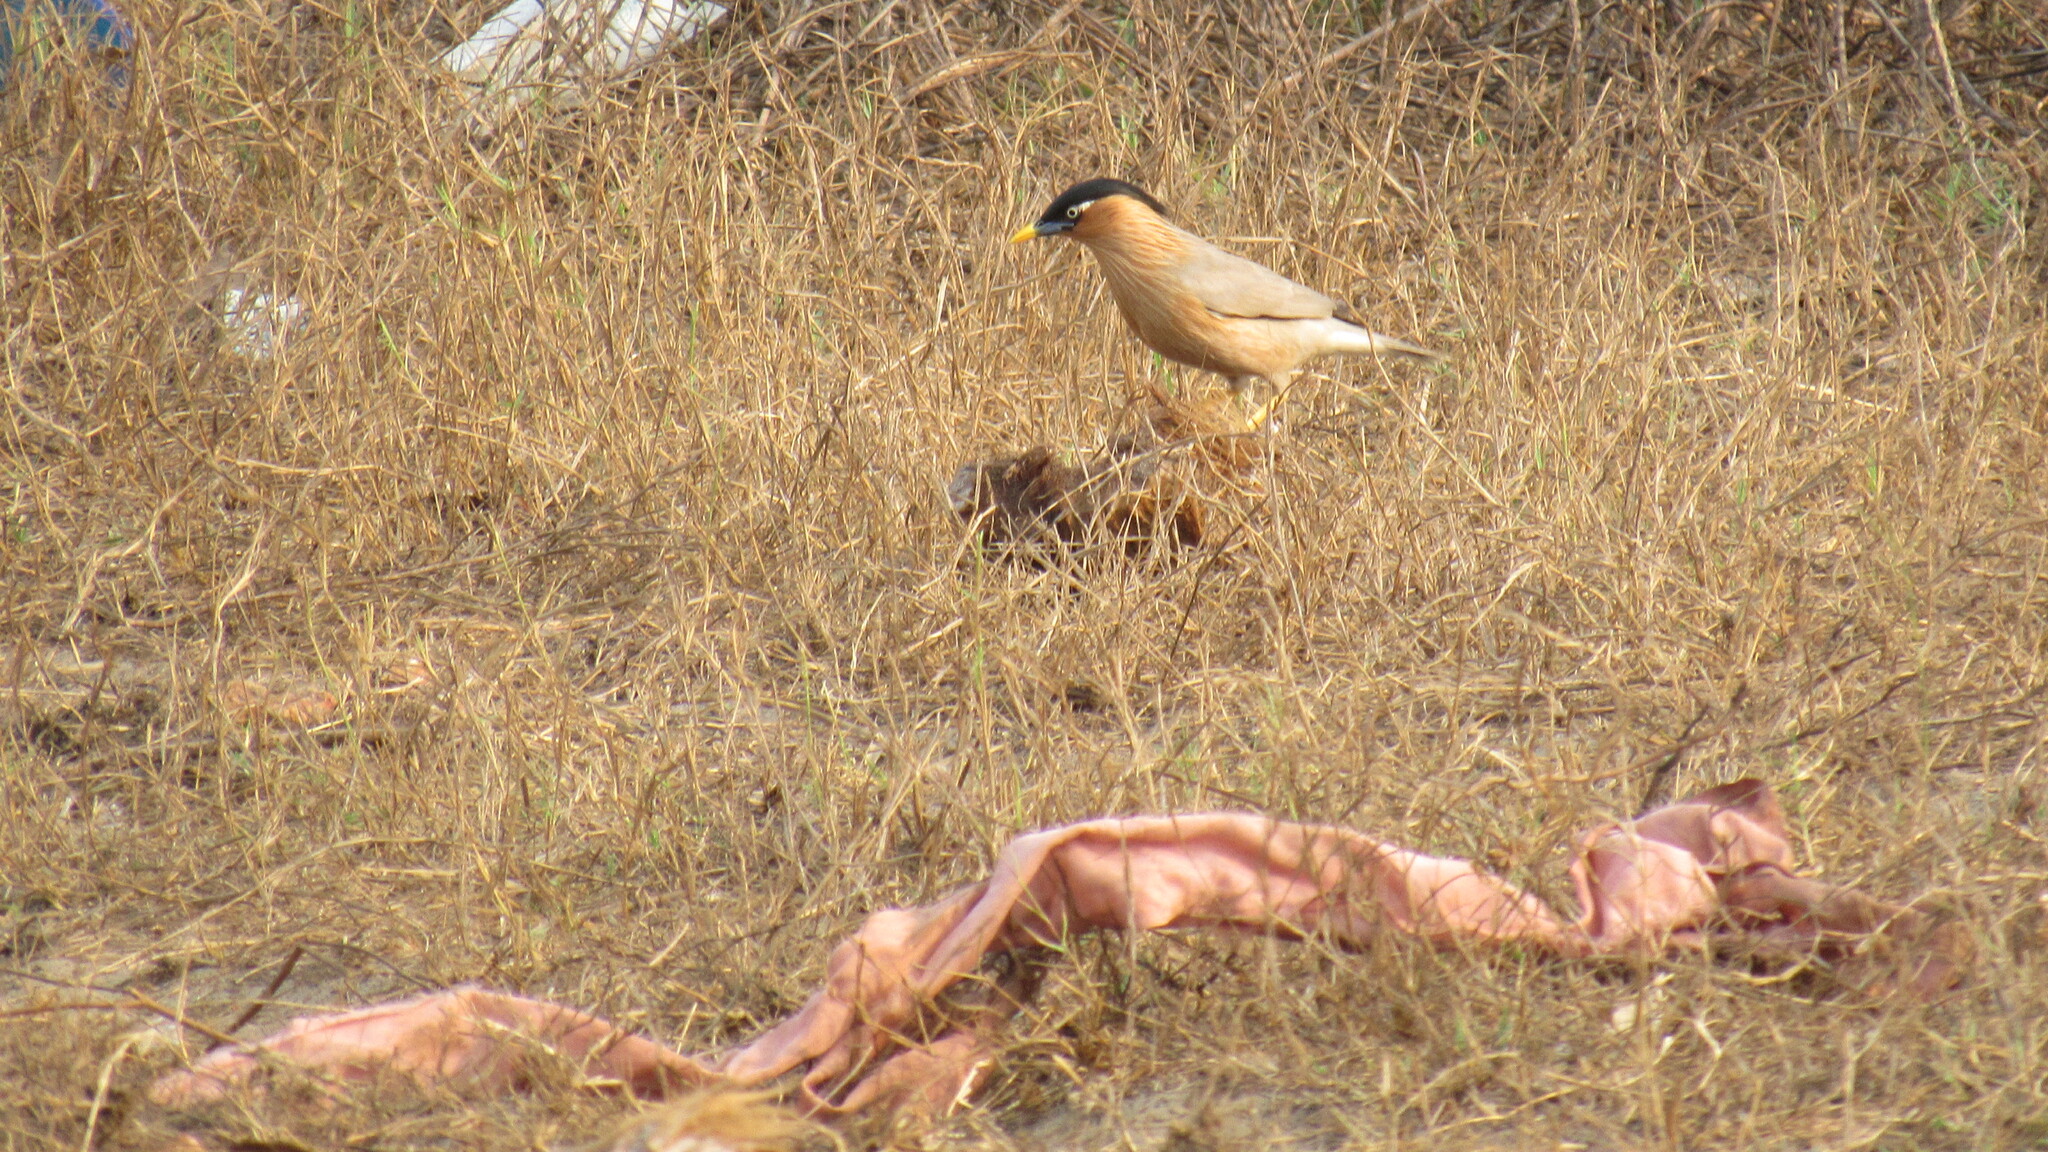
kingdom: Animalia
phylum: Chordata
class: Aves
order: Passeriformes
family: Sturnidae
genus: Sturnia
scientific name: Sturnia pagodarum
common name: Brahminy starling
